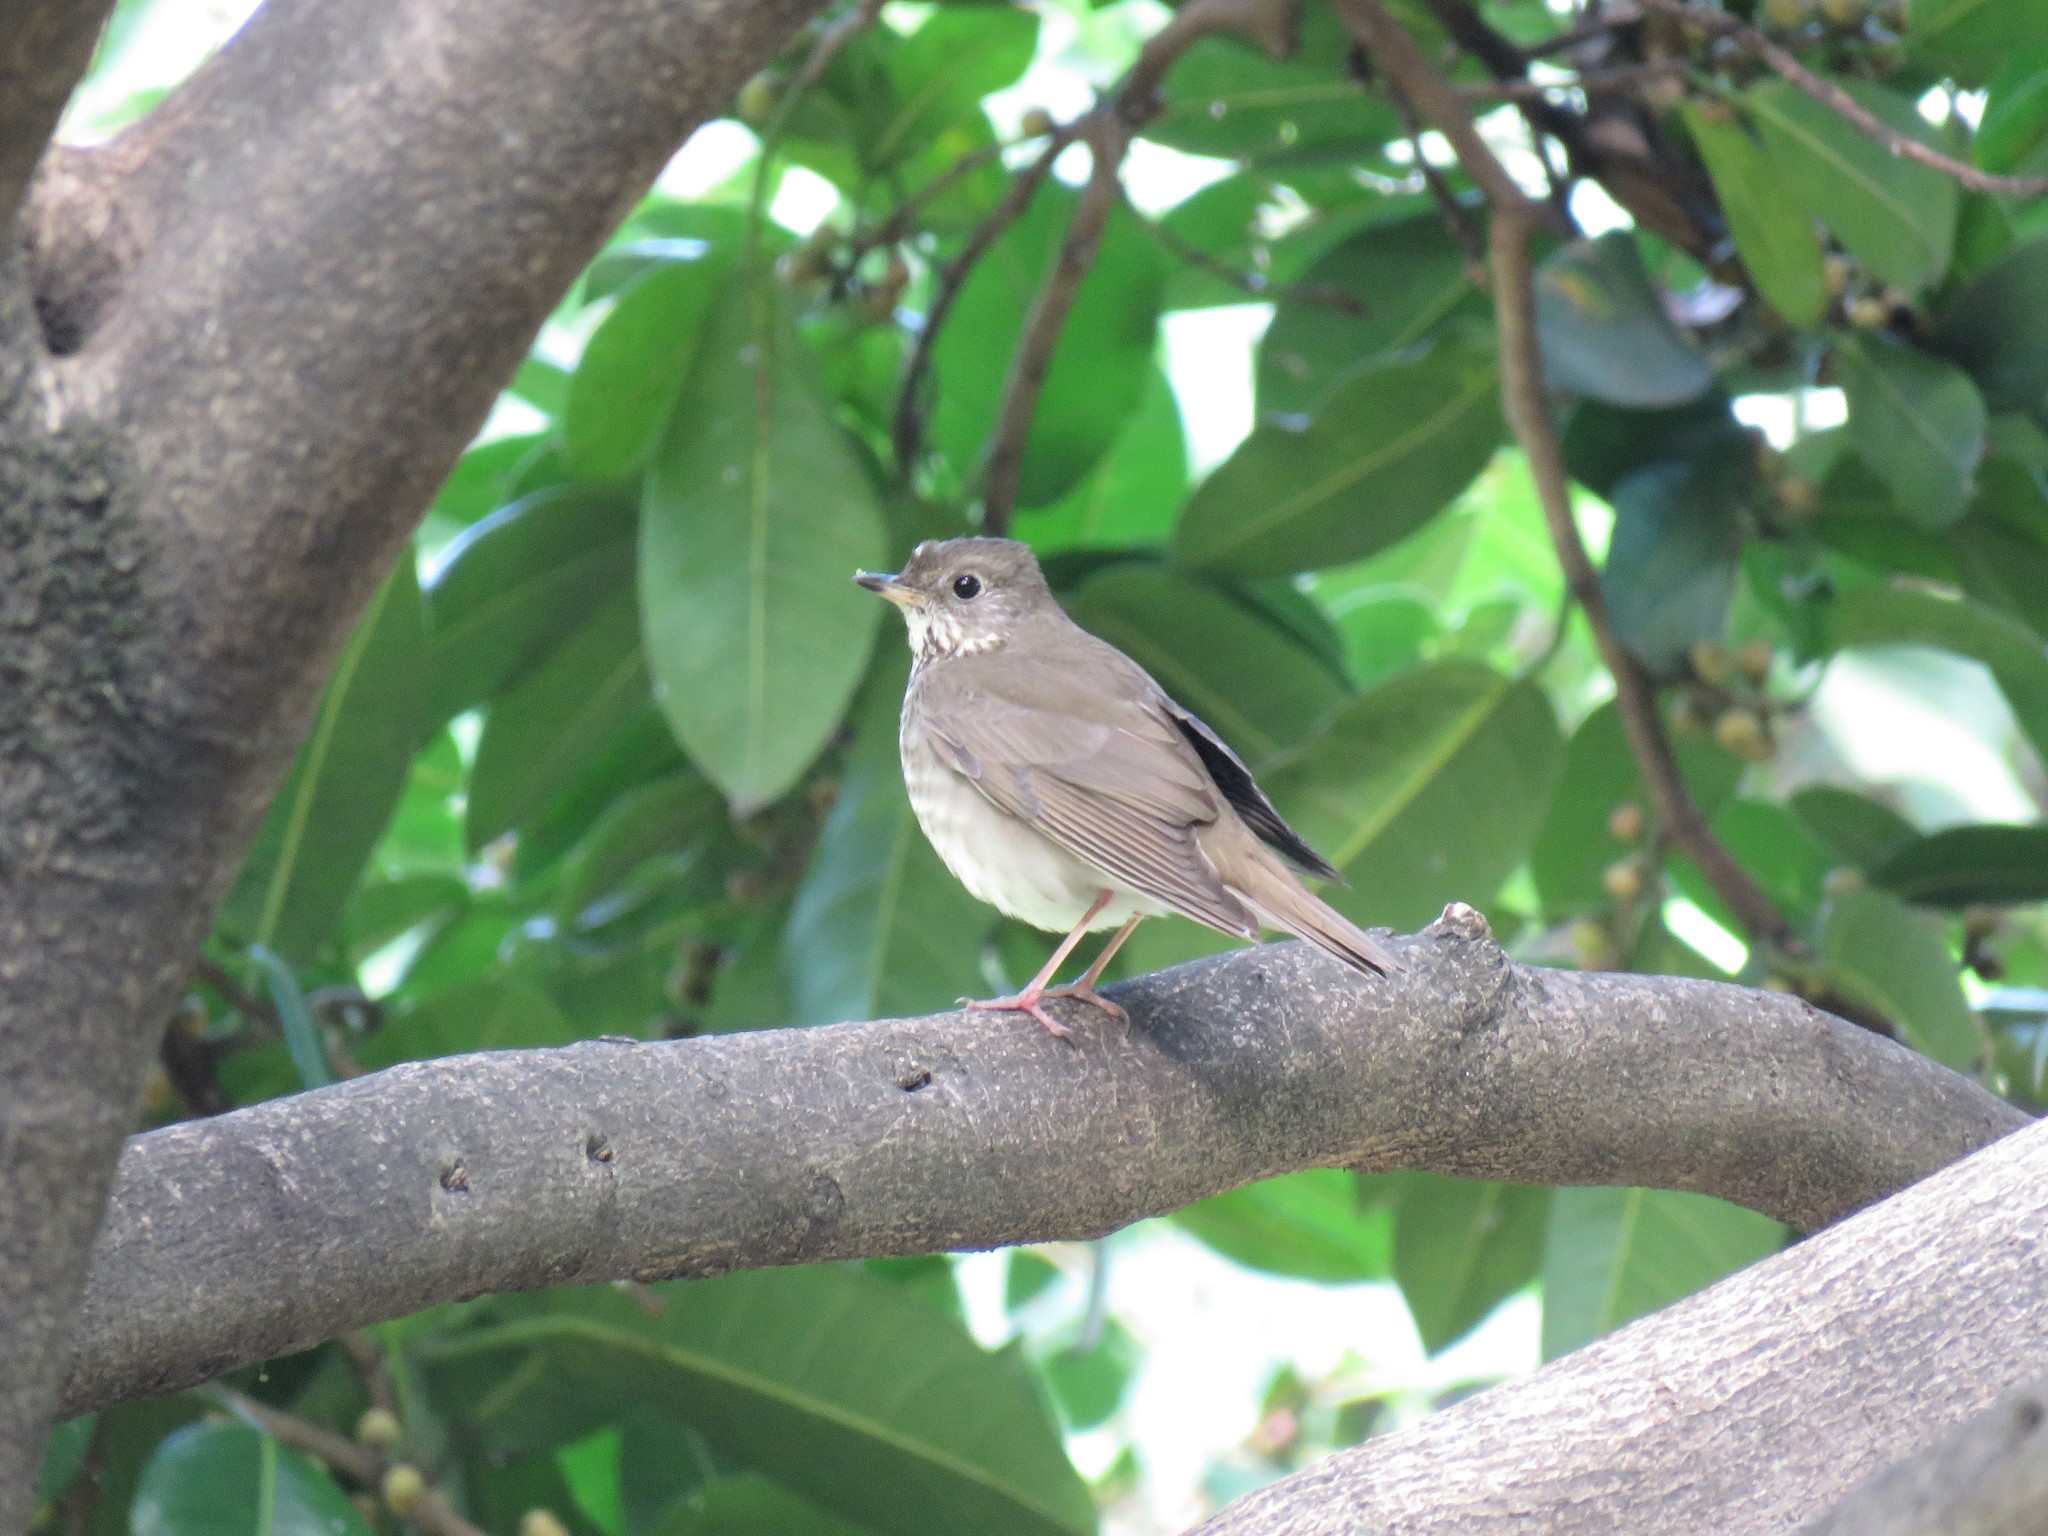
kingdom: Animalia
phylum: Chordata
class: Aves
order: Passeriformes
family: Turdidae
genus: Catharus
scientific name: Catharus minimus
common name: Grey-cheeked thrush
